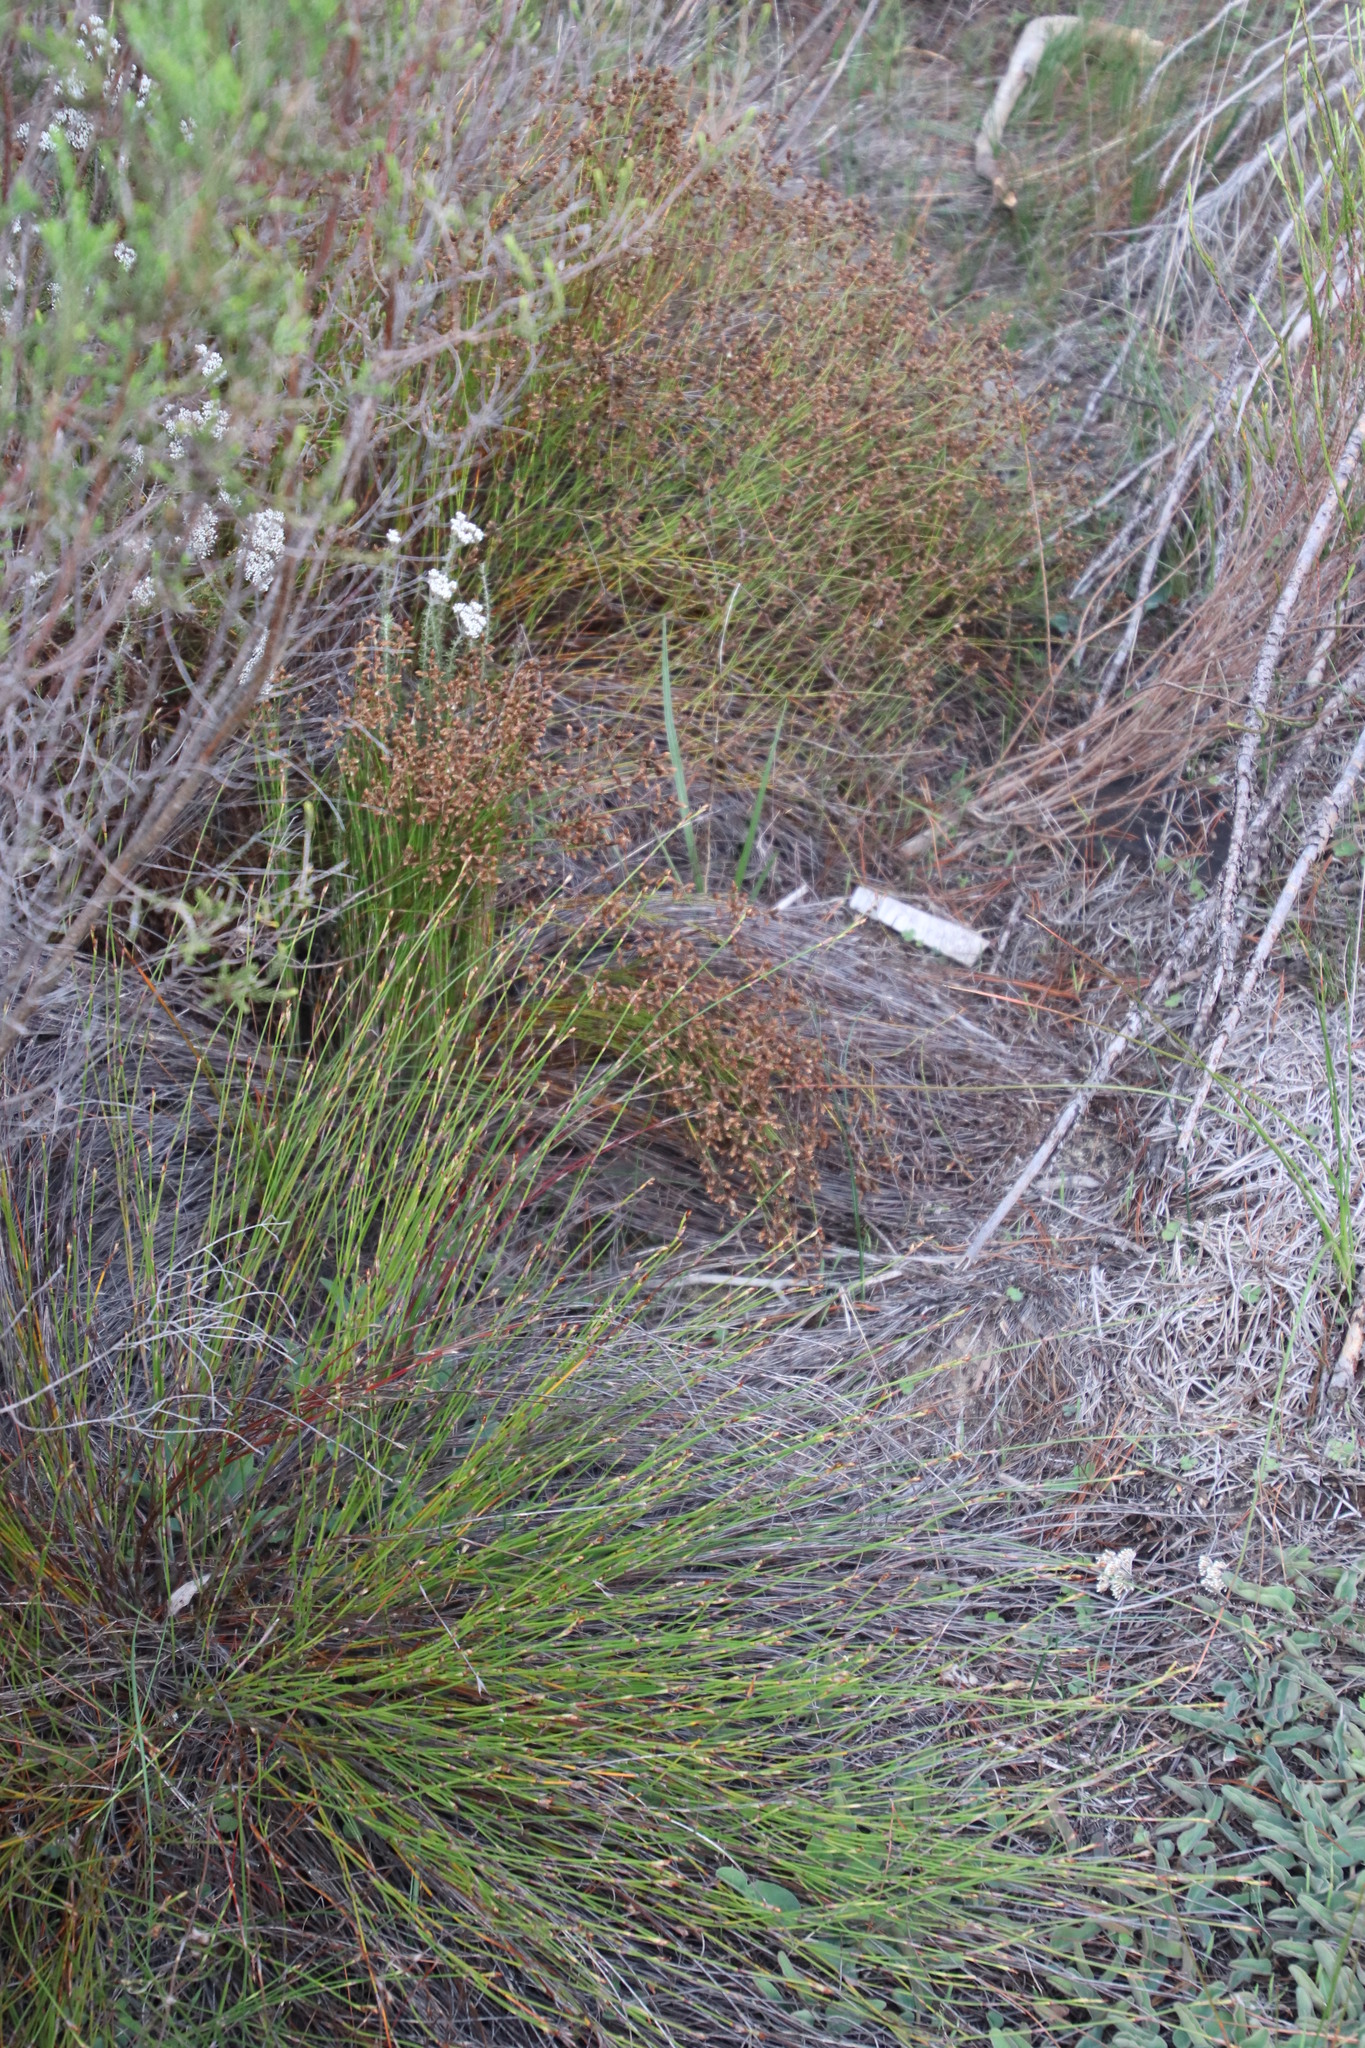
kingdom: Plantae
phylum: Tracheophyta
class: Liliopsida
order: Poales
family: Restionaceae
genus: Mastersiella
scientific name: Mastersiella digitata
